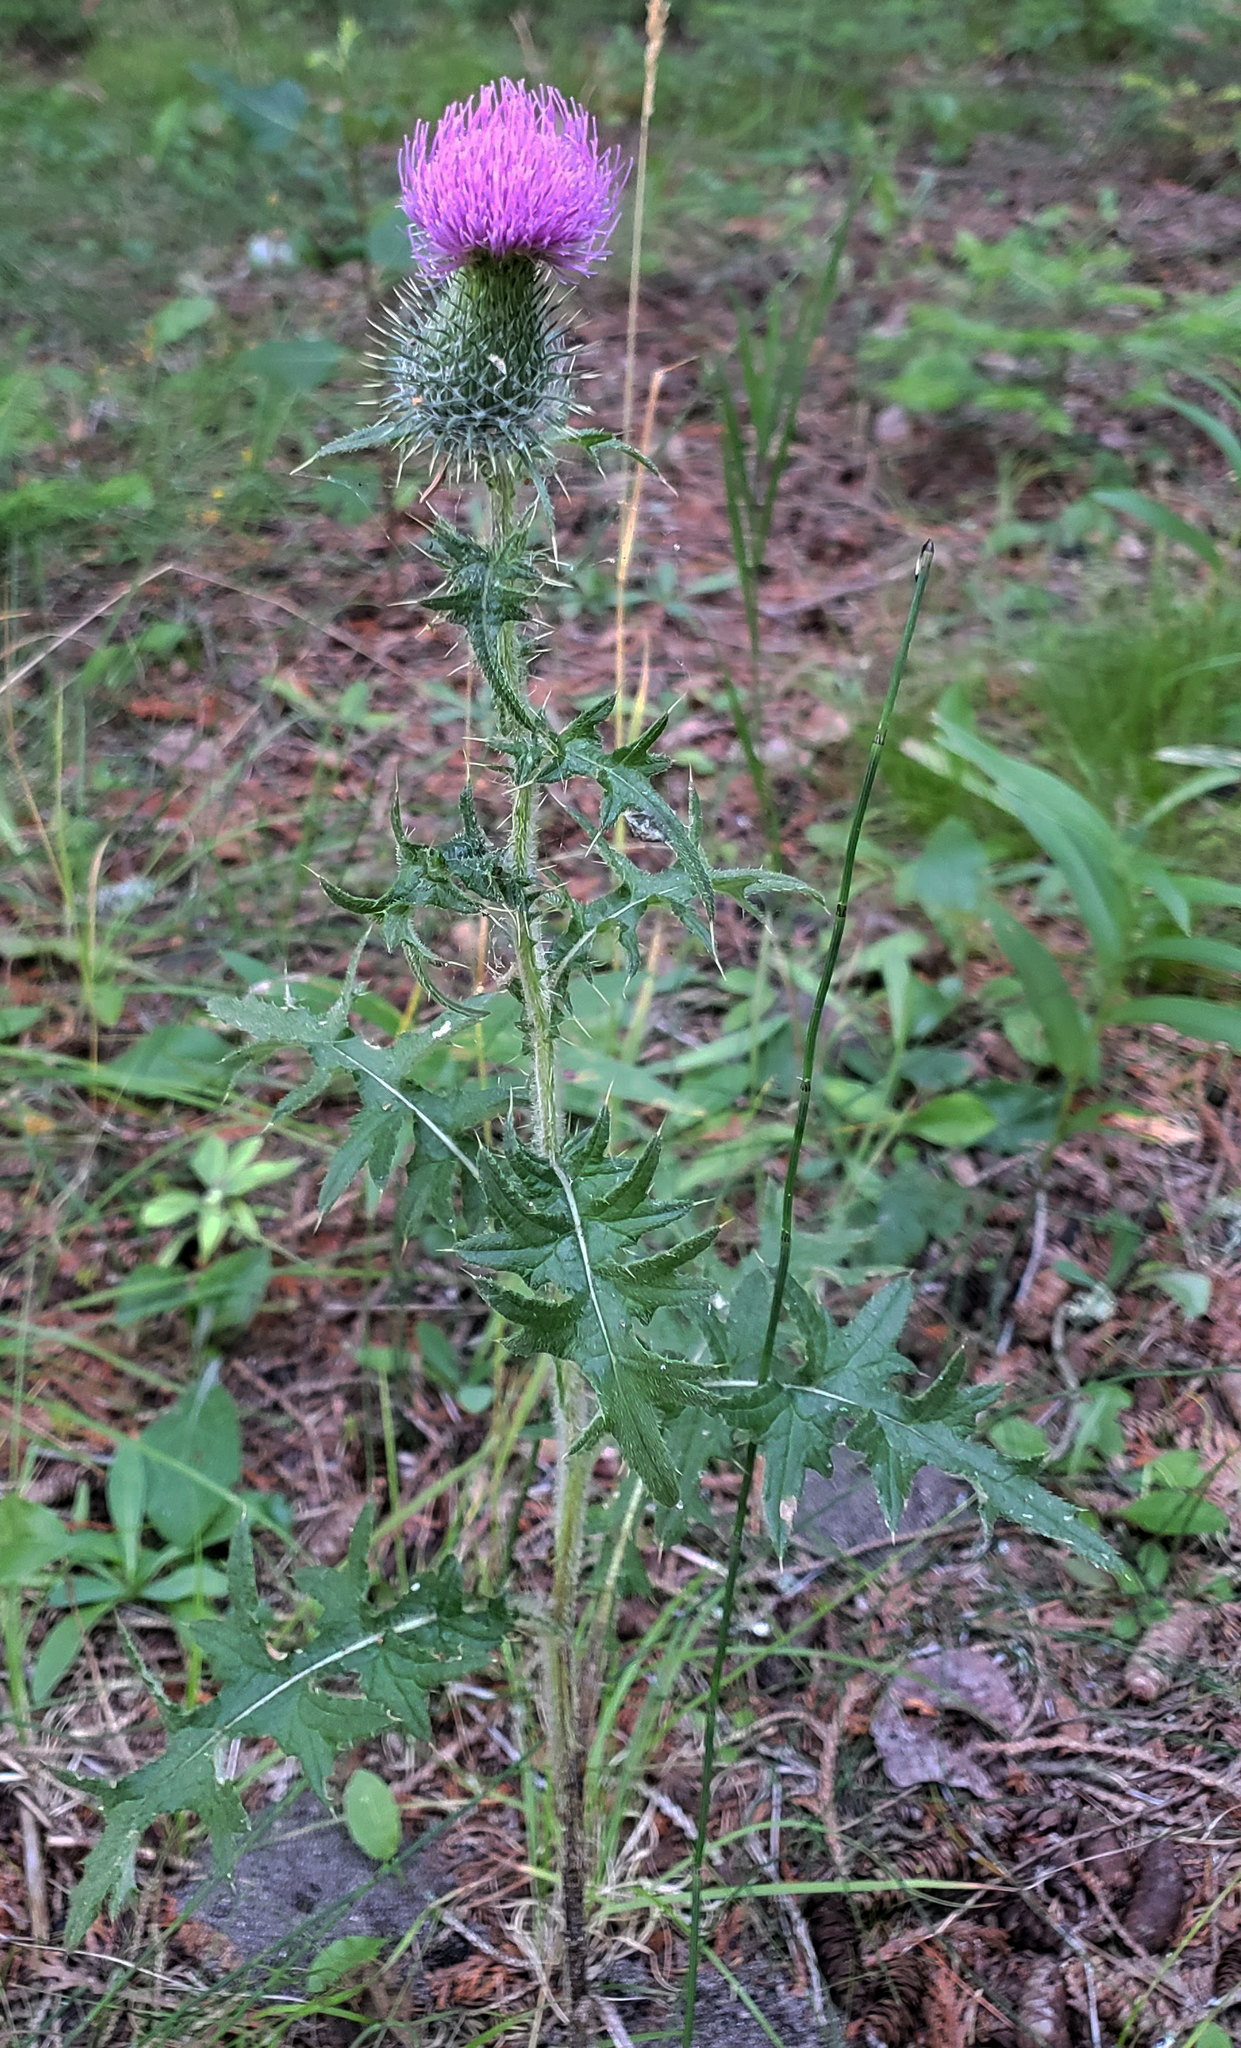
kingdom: Plantae
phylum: Tracheophyta
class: Magnoliopsida
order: Asterales
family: Asteraceae
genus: Cirsium
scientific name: Cirsium vulgare
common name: Bull thistle
